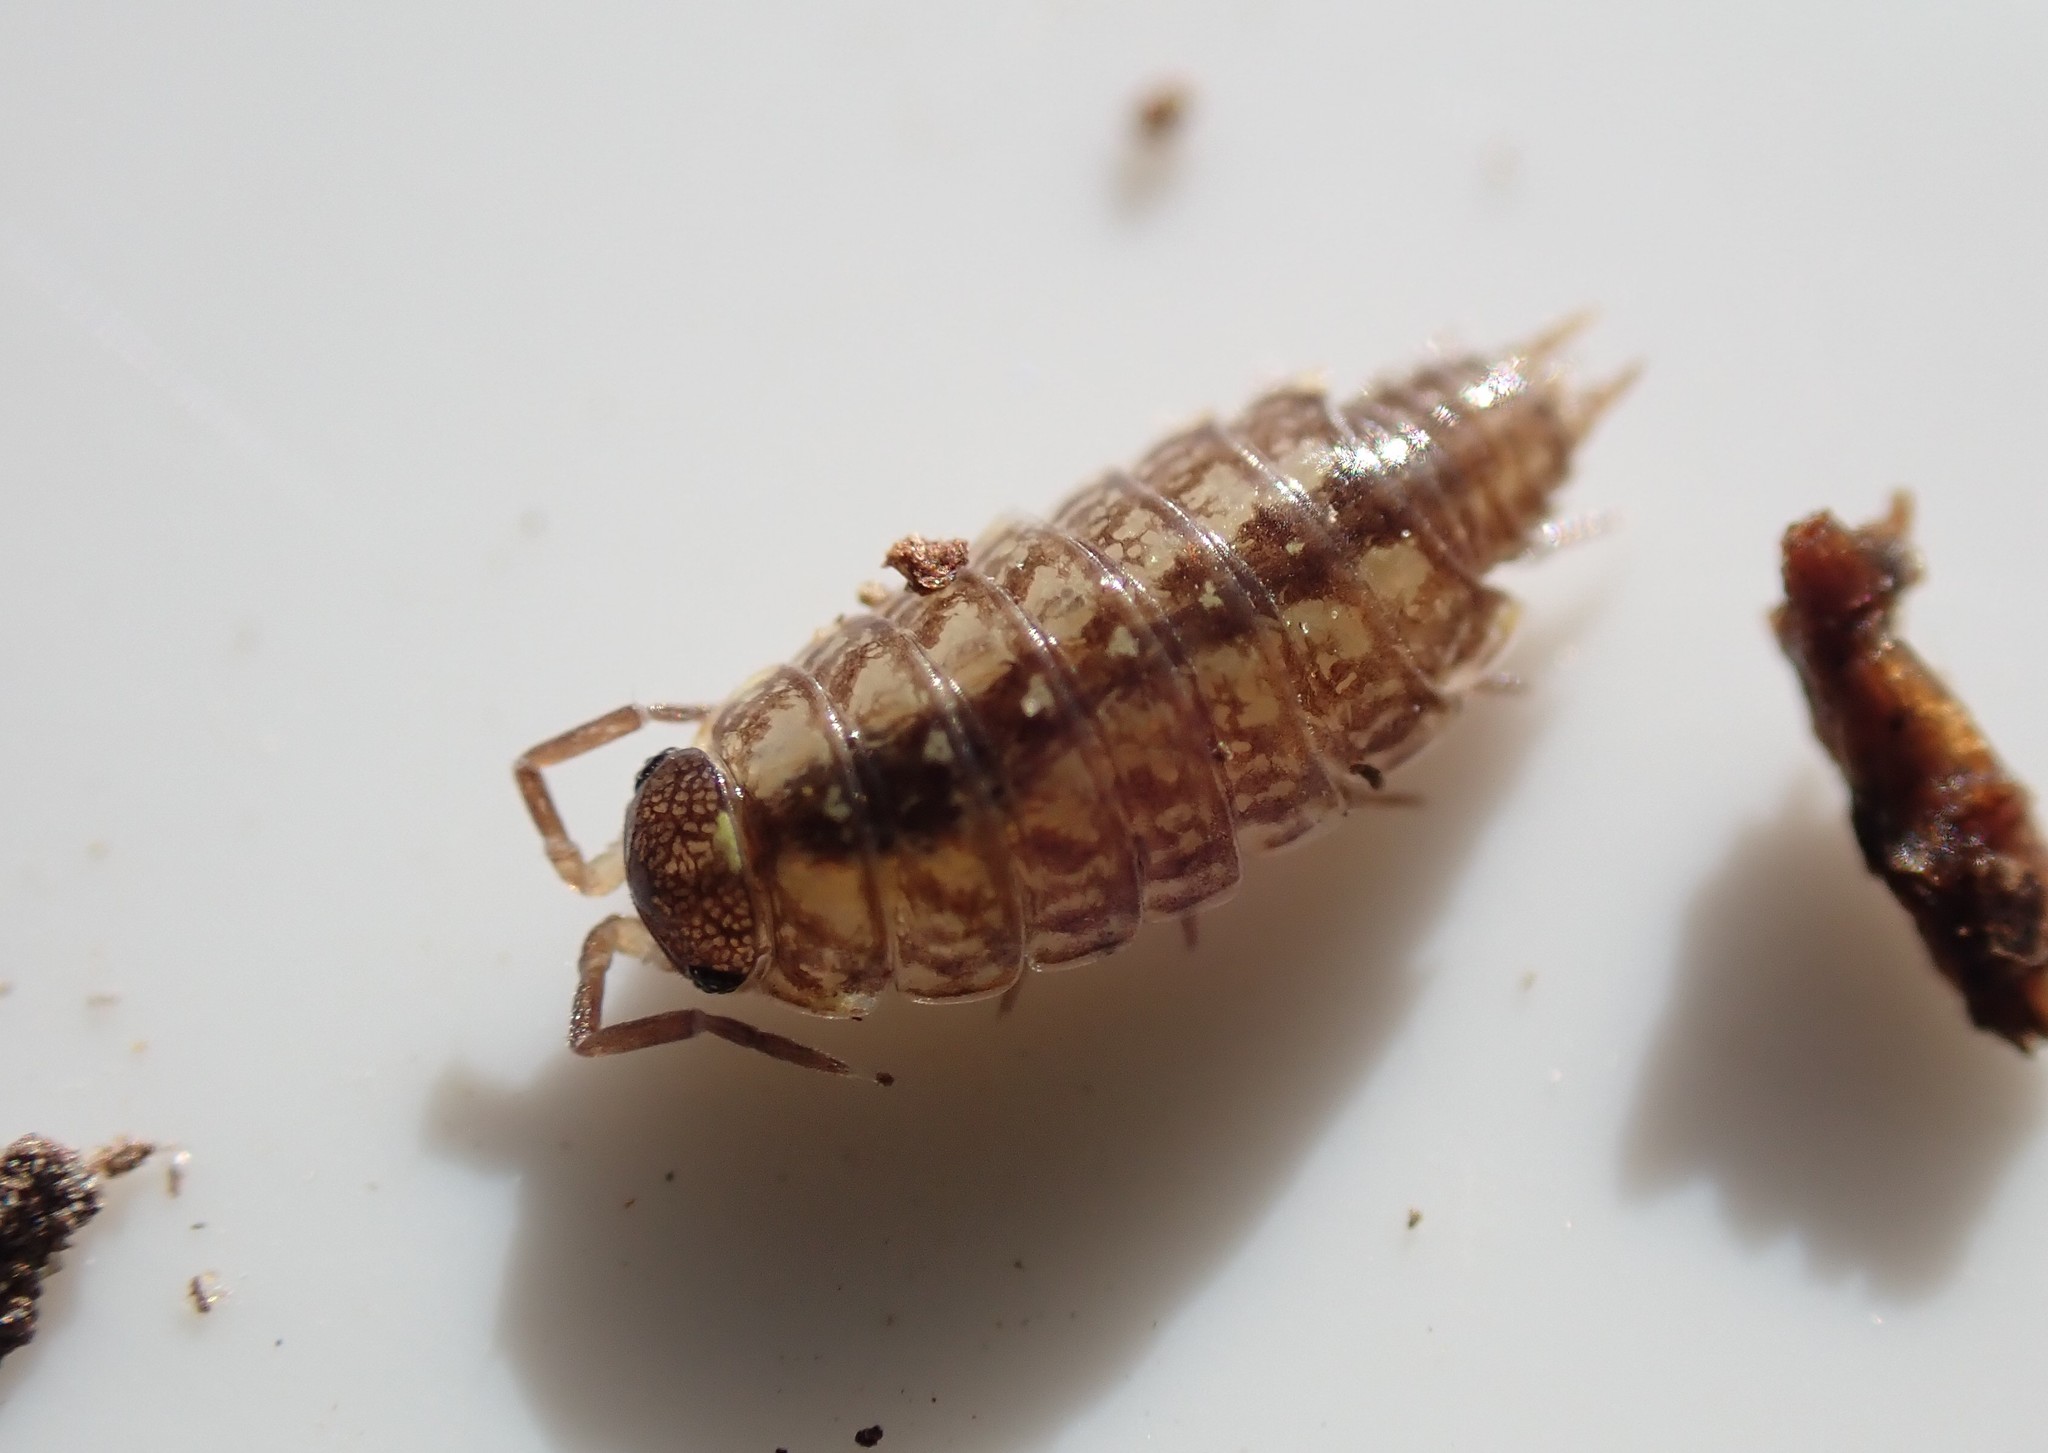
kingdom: Animalia
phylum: Arthropoda
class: Malacostraca
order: Isopoda
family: Philosciidae
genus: Philoscia
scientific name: Philoscia muscorum
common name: Common striped woodlouse
